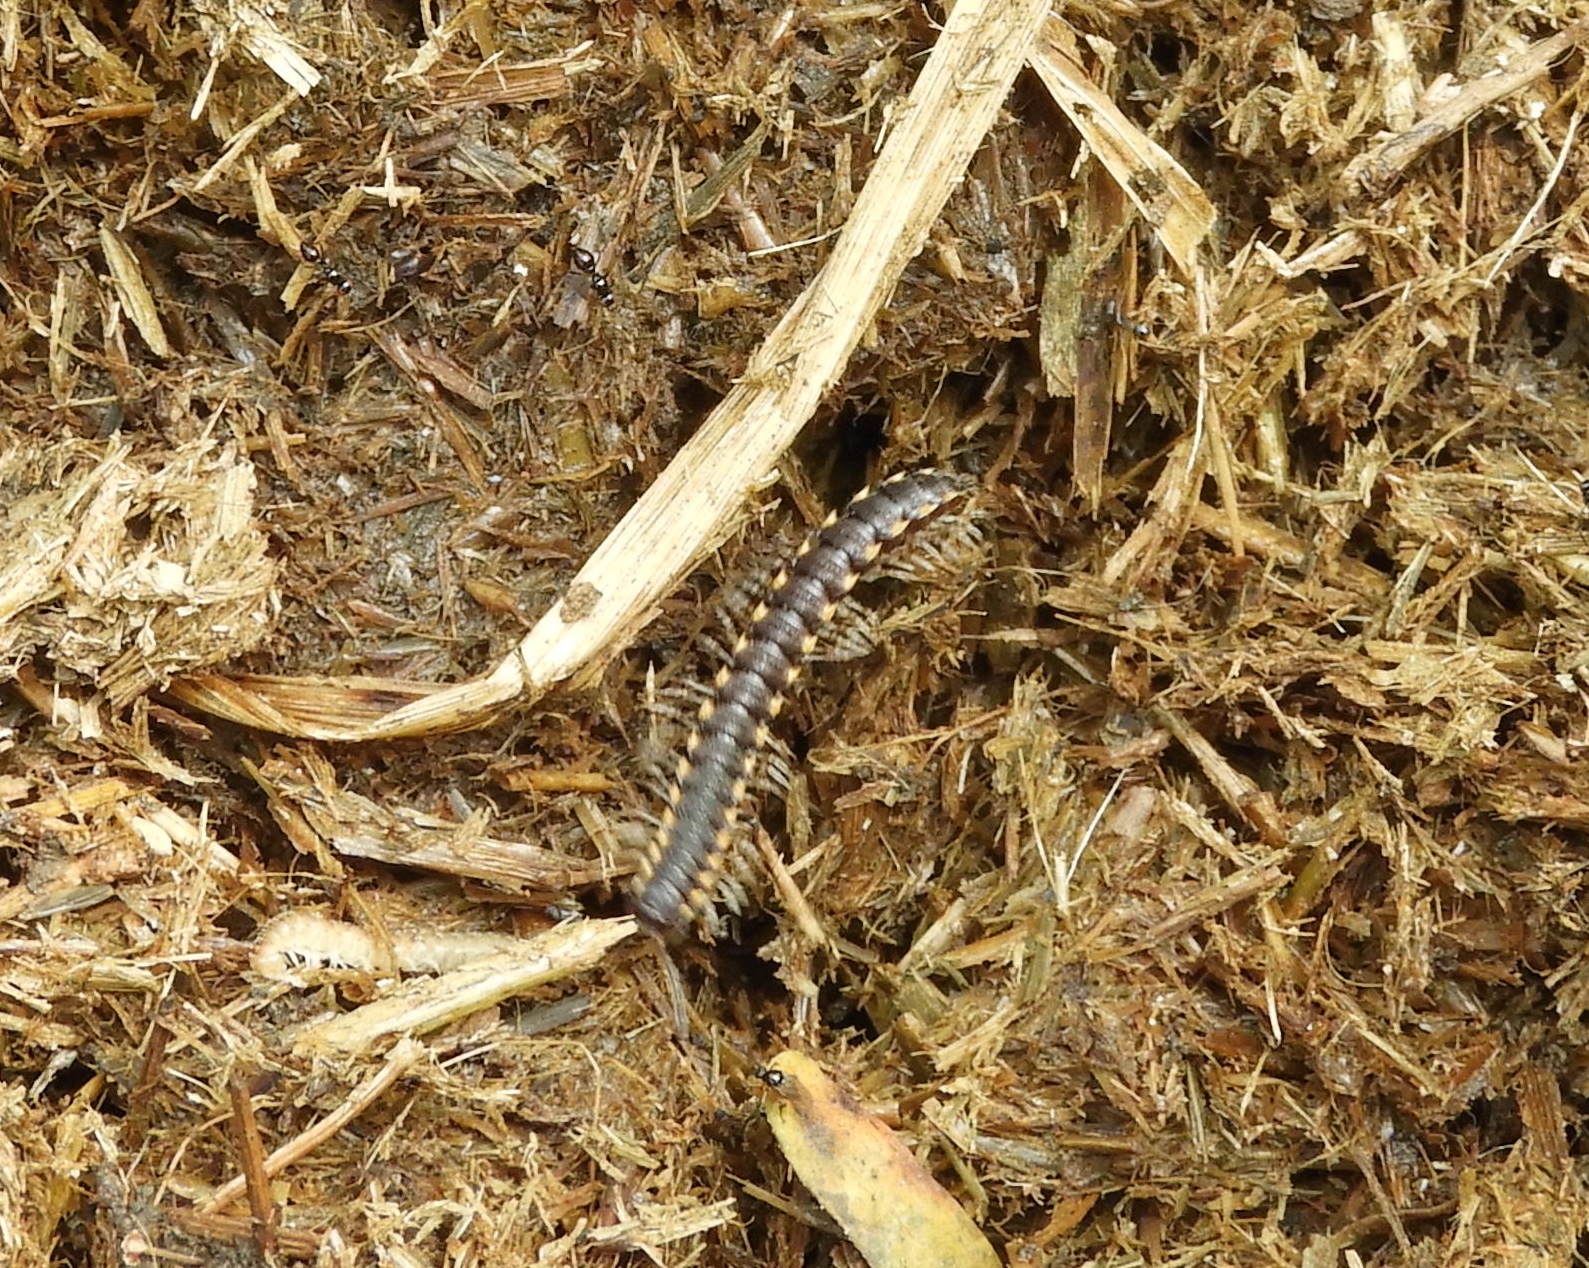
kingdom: Animalia
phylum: Arthropoda
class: Diplopoda
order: Polydesmida
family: Paradoxosomatidae
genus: Chondromorpha
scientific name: Chondromorpha xanthotricha
